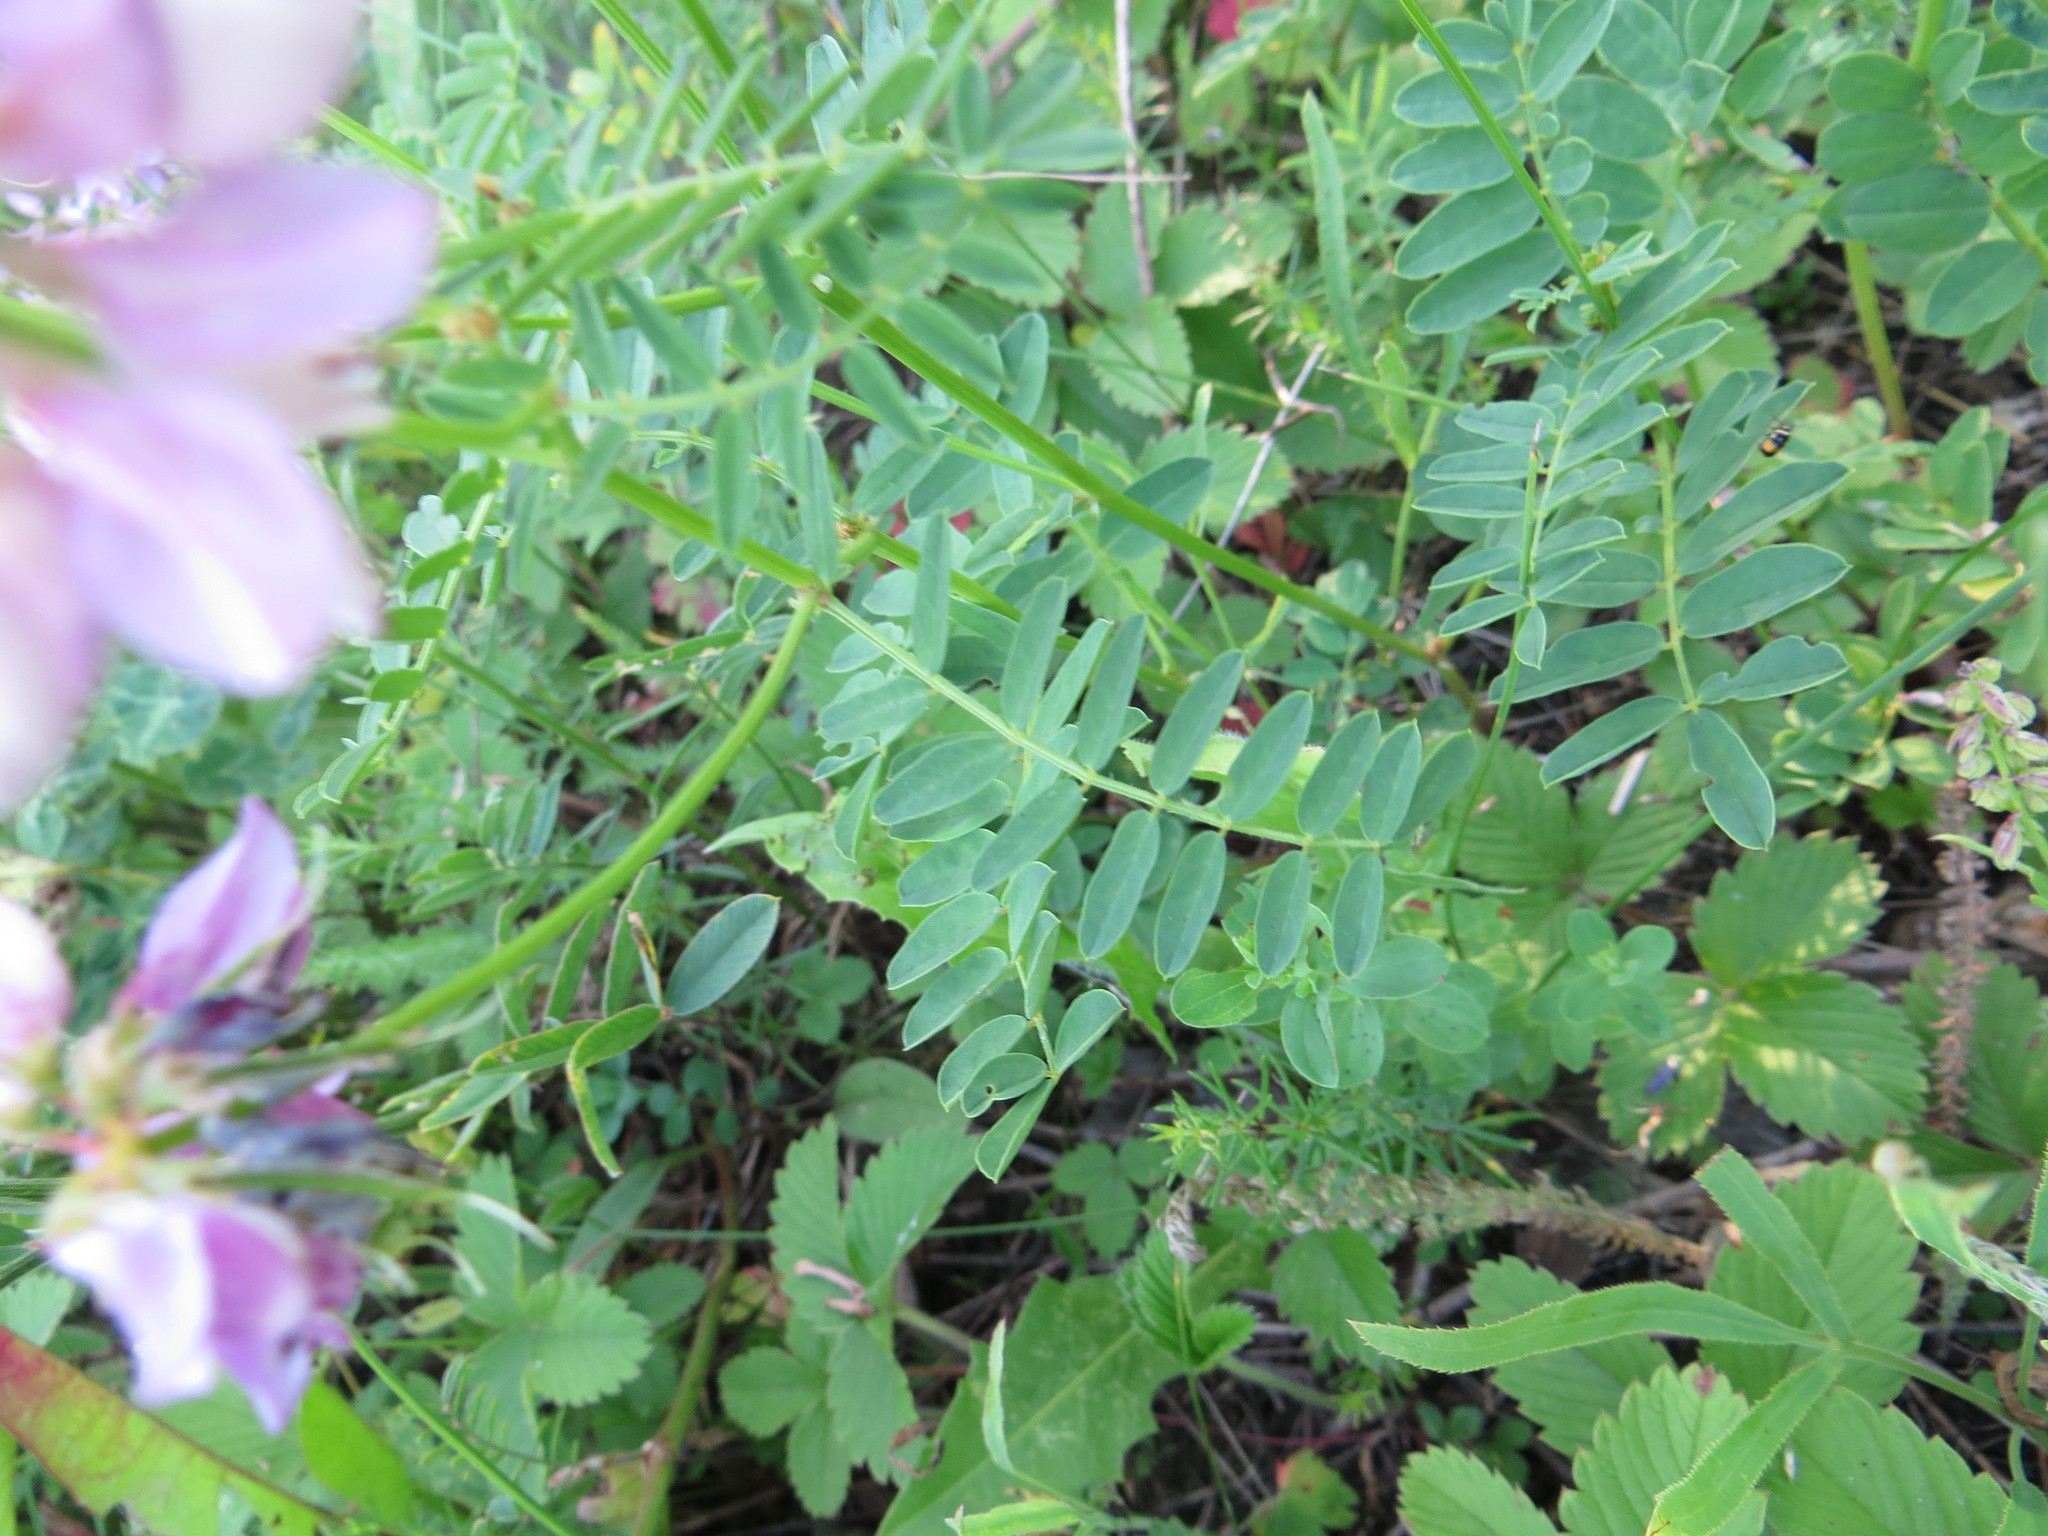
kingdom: Plantae
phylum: Tracheophyta
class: Magnoliopsida
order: Fabales
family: Fabaceae
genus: Coronilla
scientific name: Coronilla varia
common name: Crownvetch
